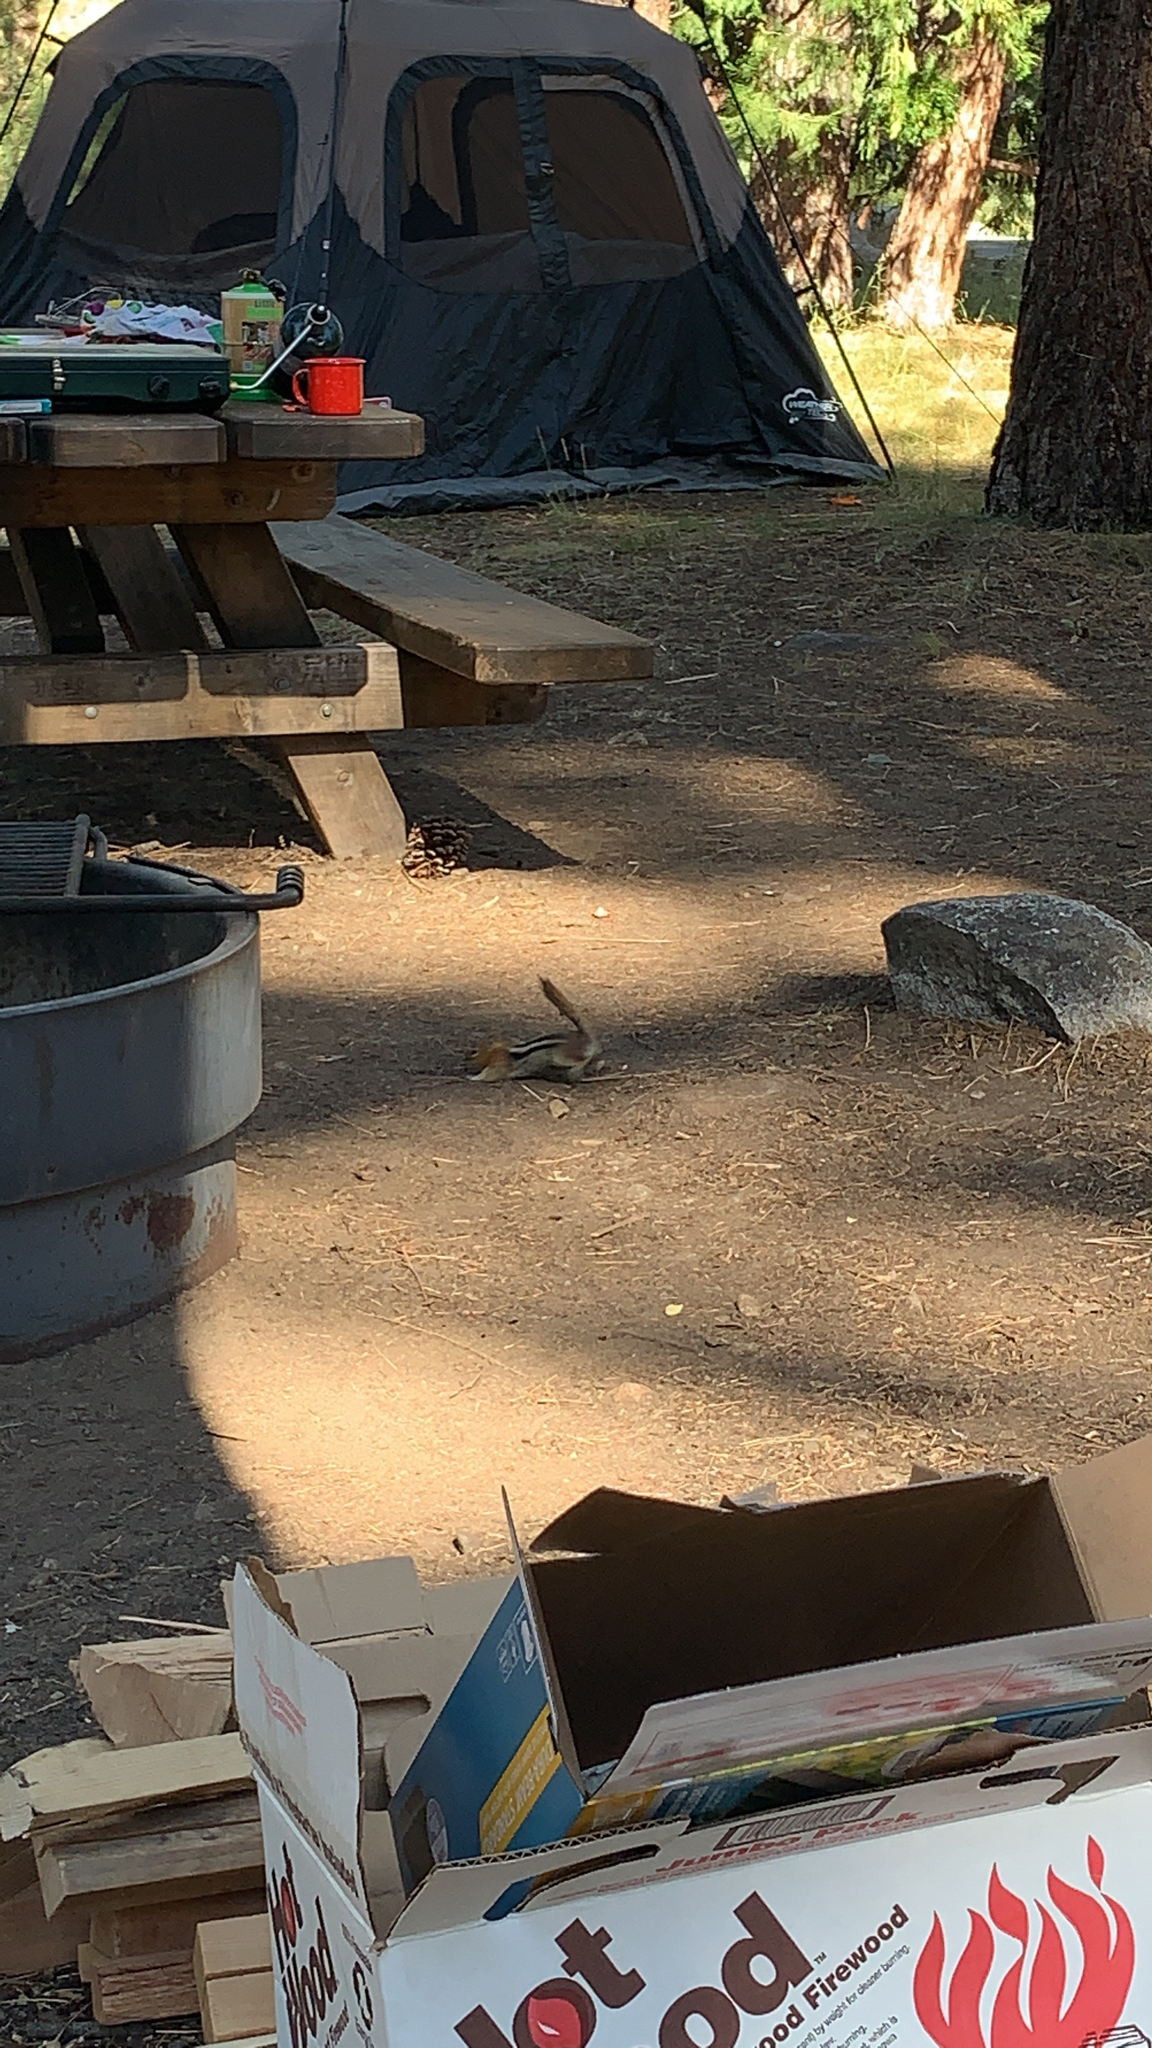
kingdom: Animalia
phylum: Chordata
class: Mammalia
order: Rodentia
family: Sciuridae
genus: Callospermophilus
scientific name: Callospermophilus lateralis
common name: Golden-mantled ground squirrel
